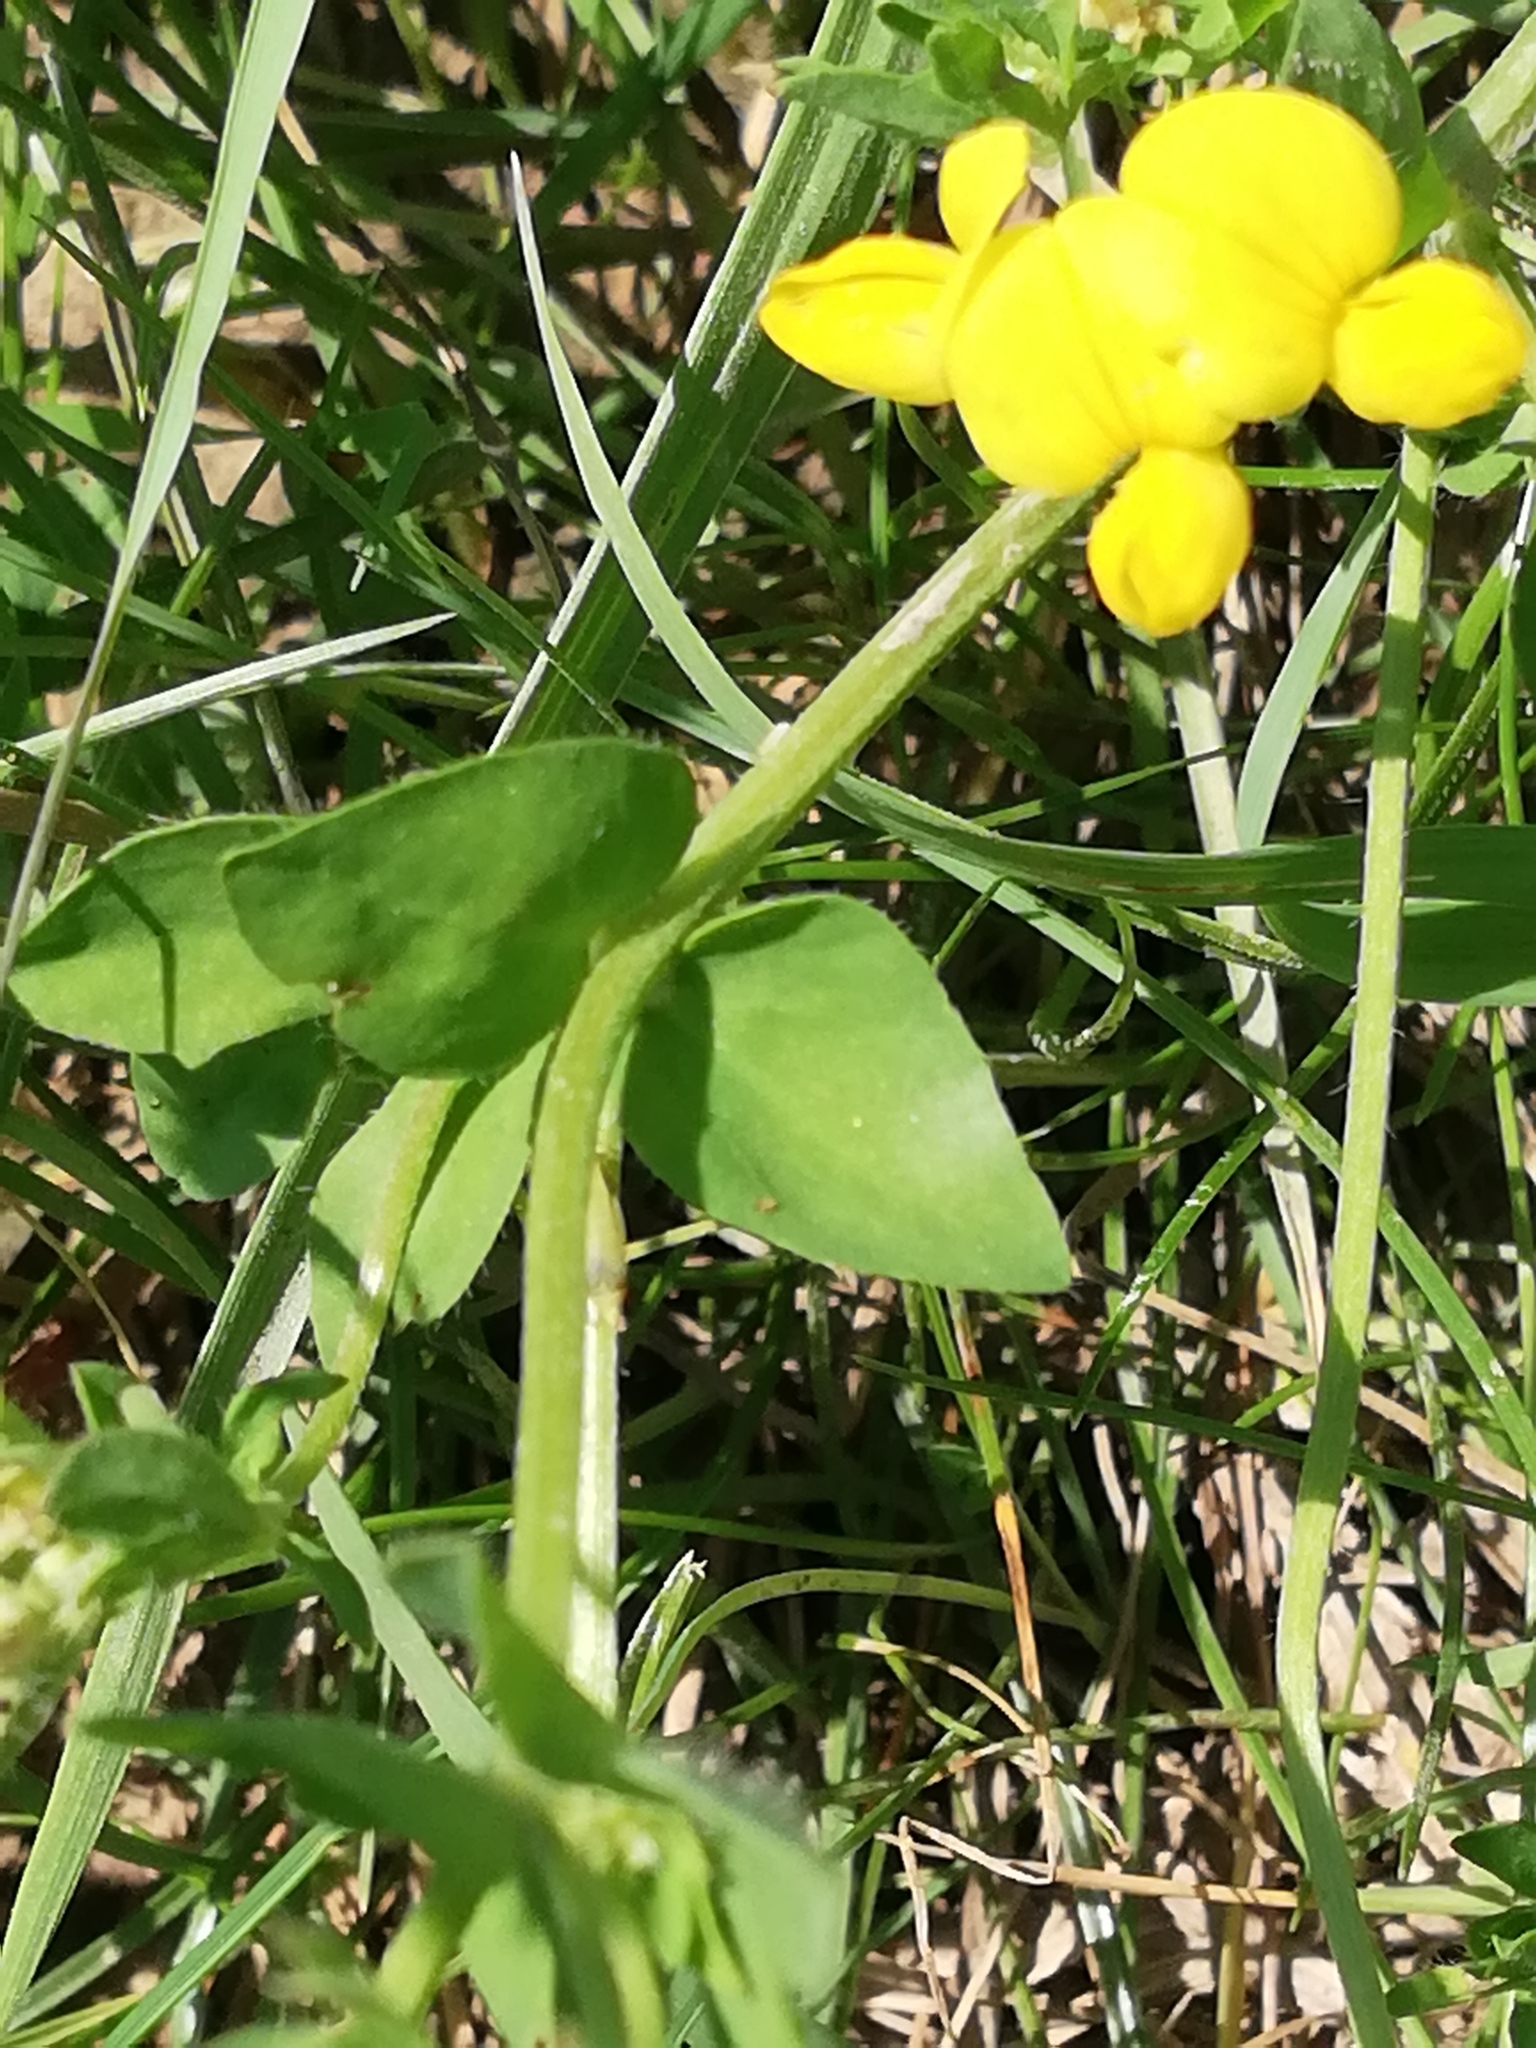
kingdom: Plantae
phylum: Tracheophyta
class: Magnoliopsida
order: Fabales
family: Fabaceae
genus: Lotus
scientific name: Lotus corniculatus
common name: Common bird's-foot-trefoil
